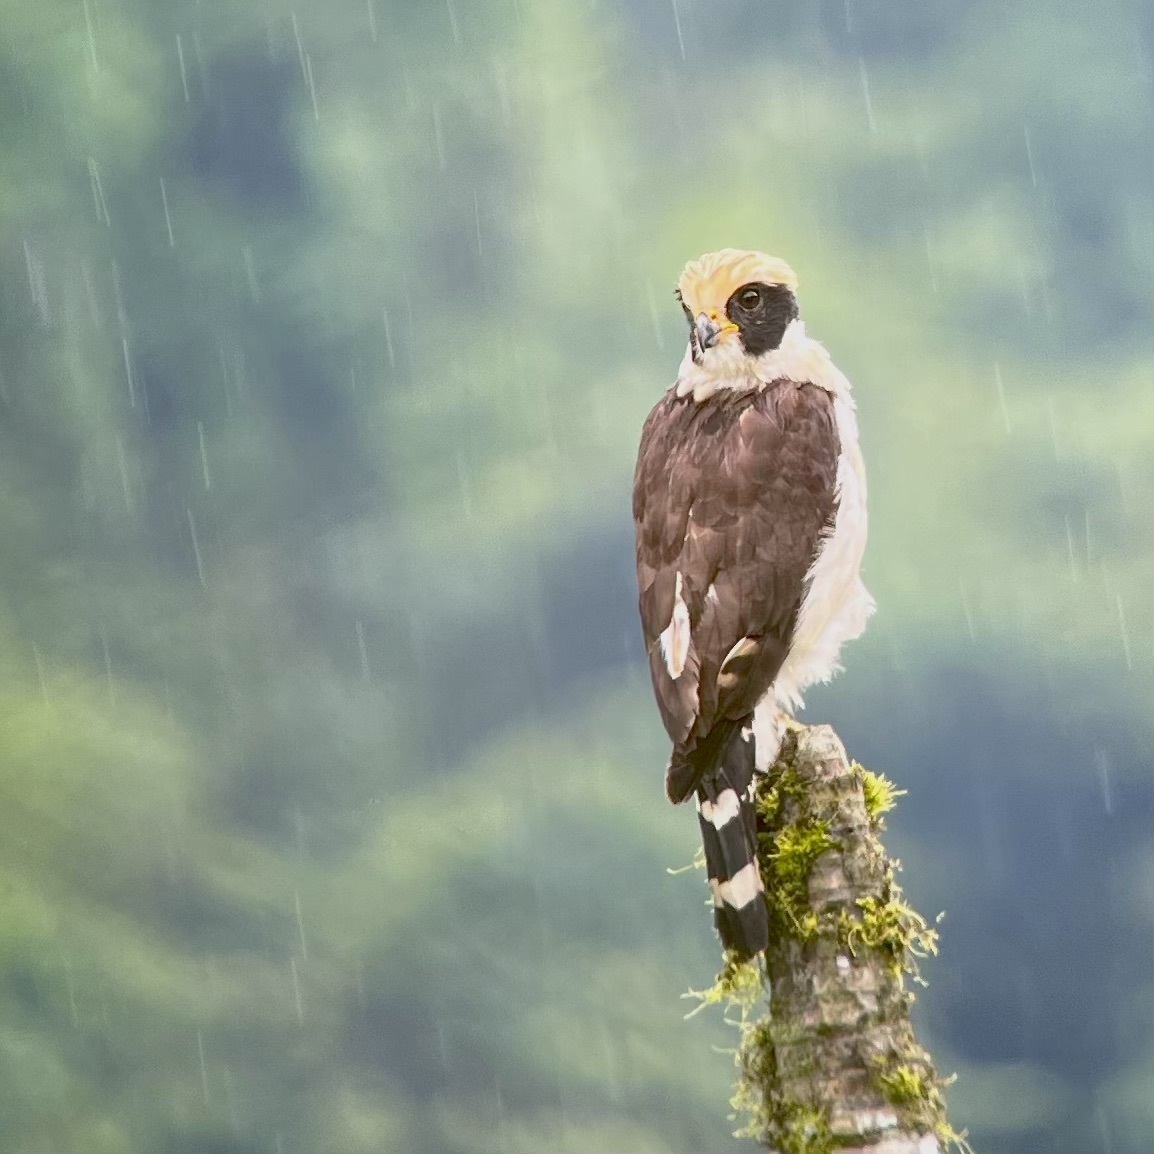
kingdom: Animalia
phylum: Chordata
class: Aves
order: Falconiformes
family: Falconidae
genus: Herpetotheres
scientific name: Herpetotheres cachinnans
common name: Laughing falcon
